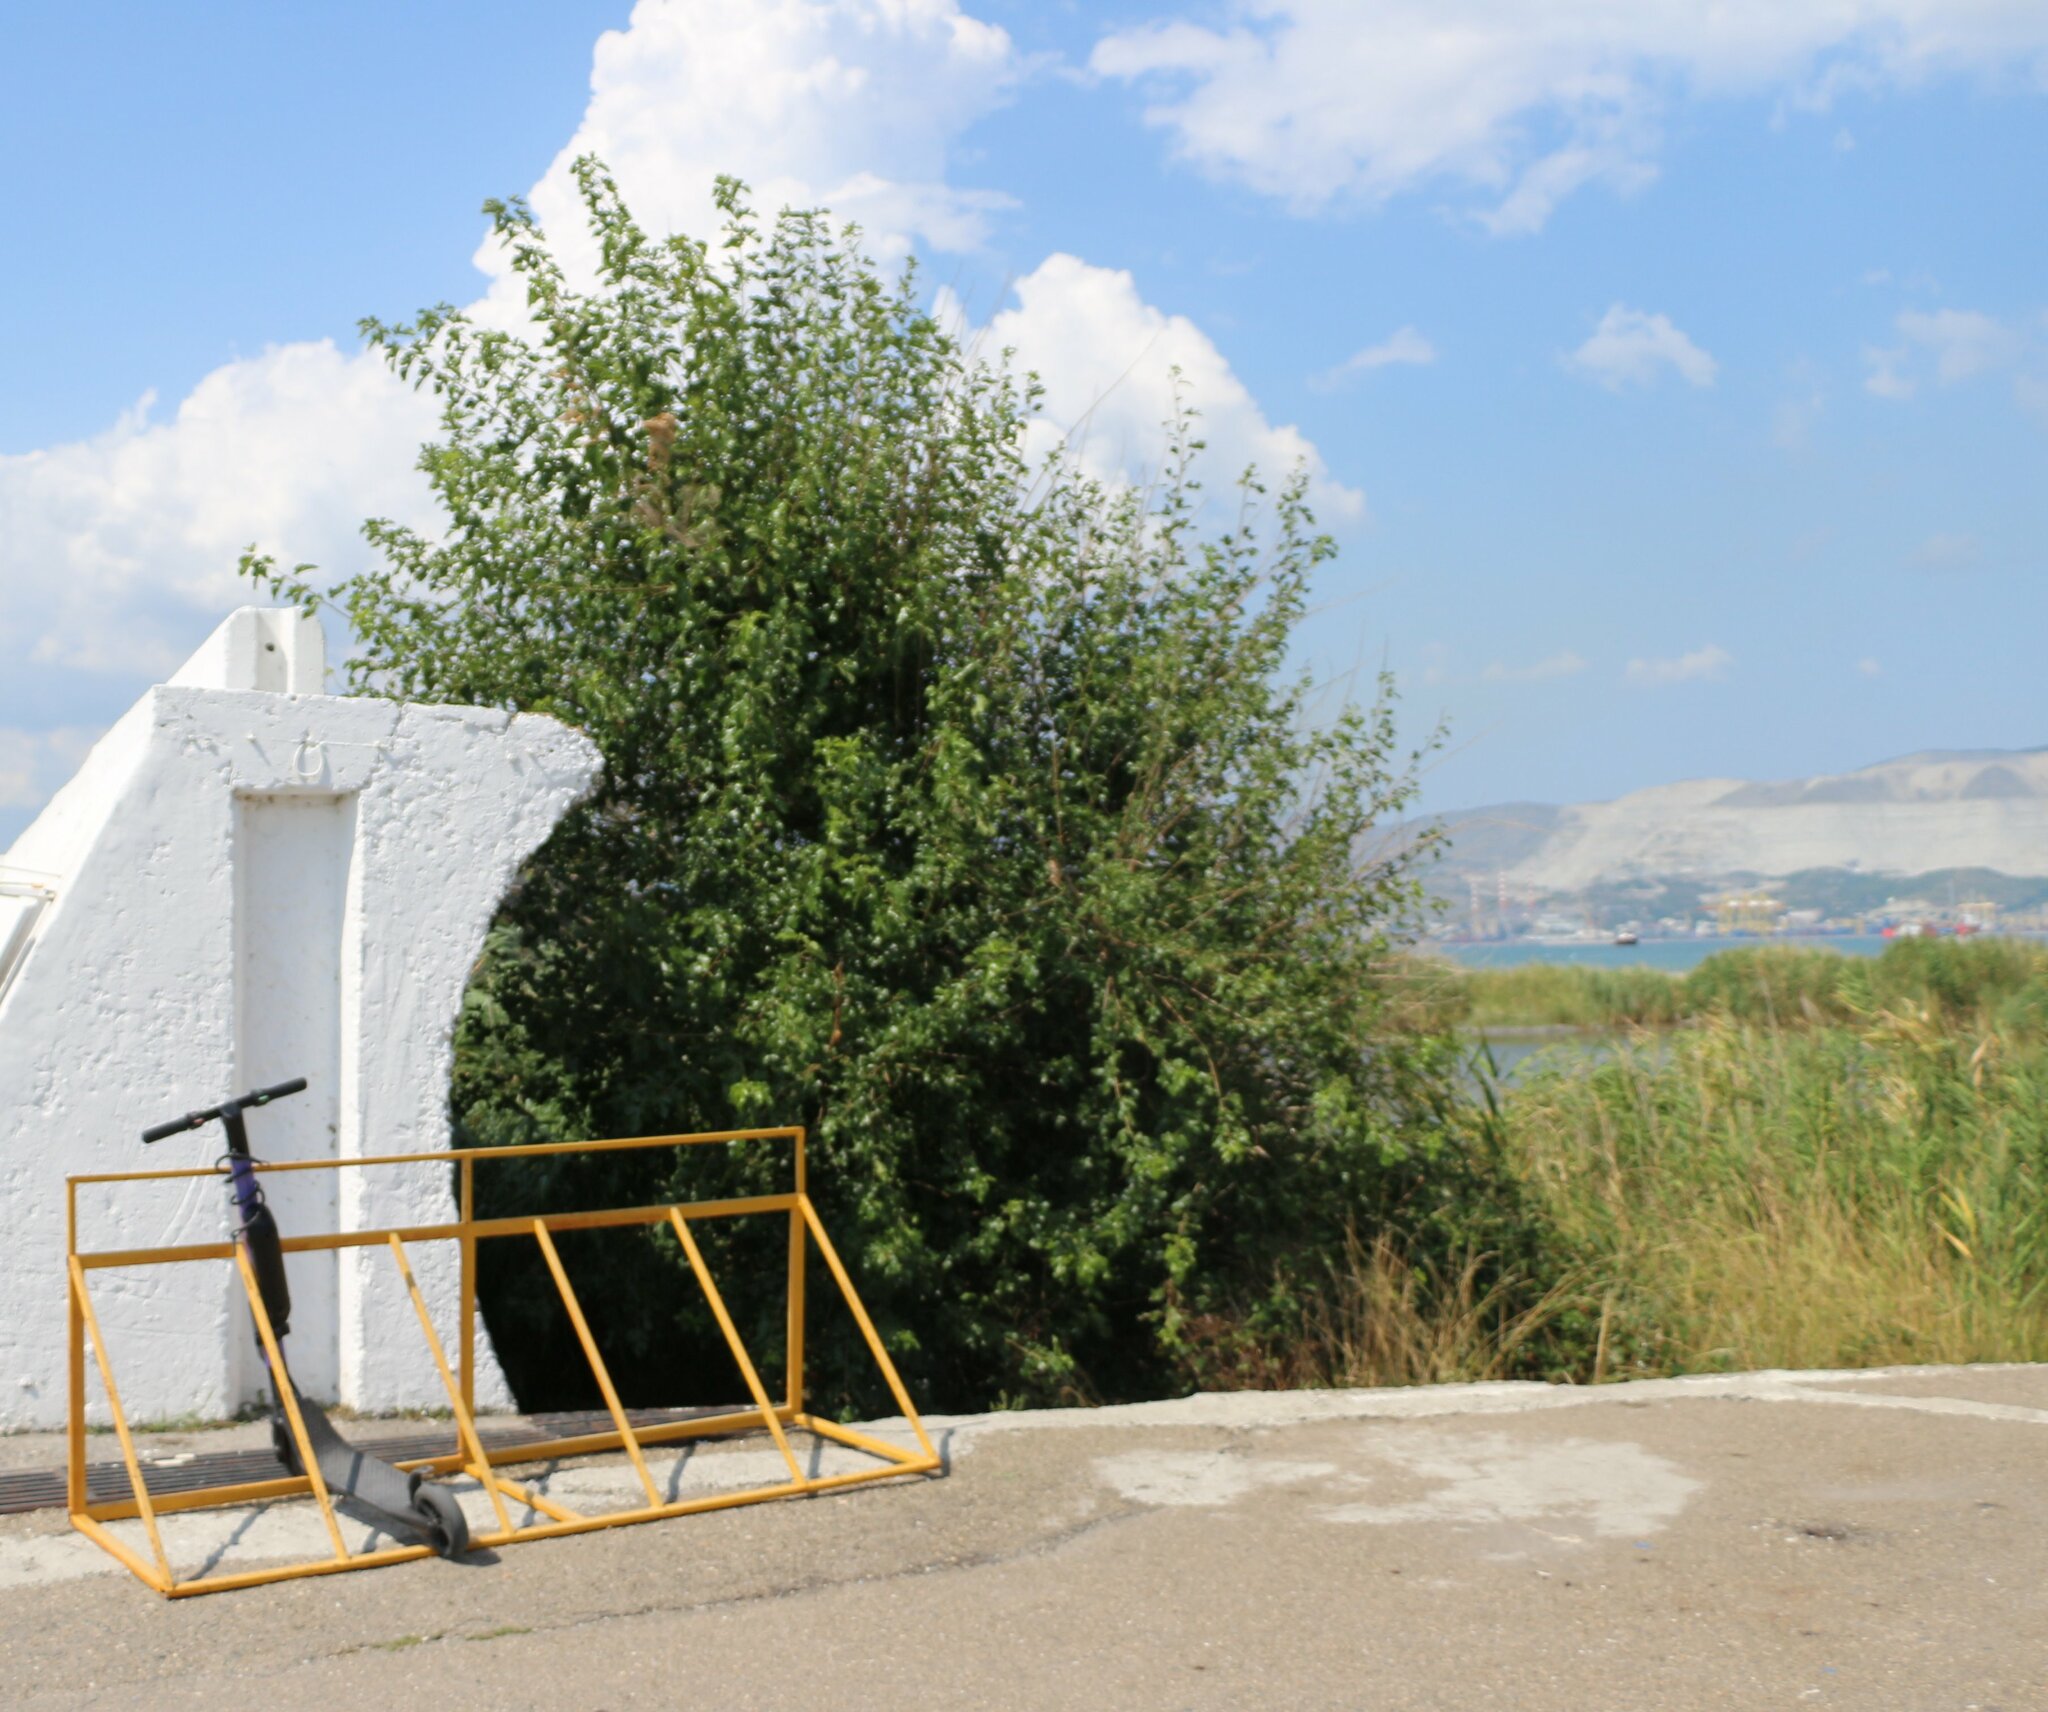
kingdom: Plantae
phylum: Tracheophyta
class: Magnoliopsida
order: Rosales
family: Moraceae
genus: Morus
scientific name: Morus alba
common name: White mulberry
